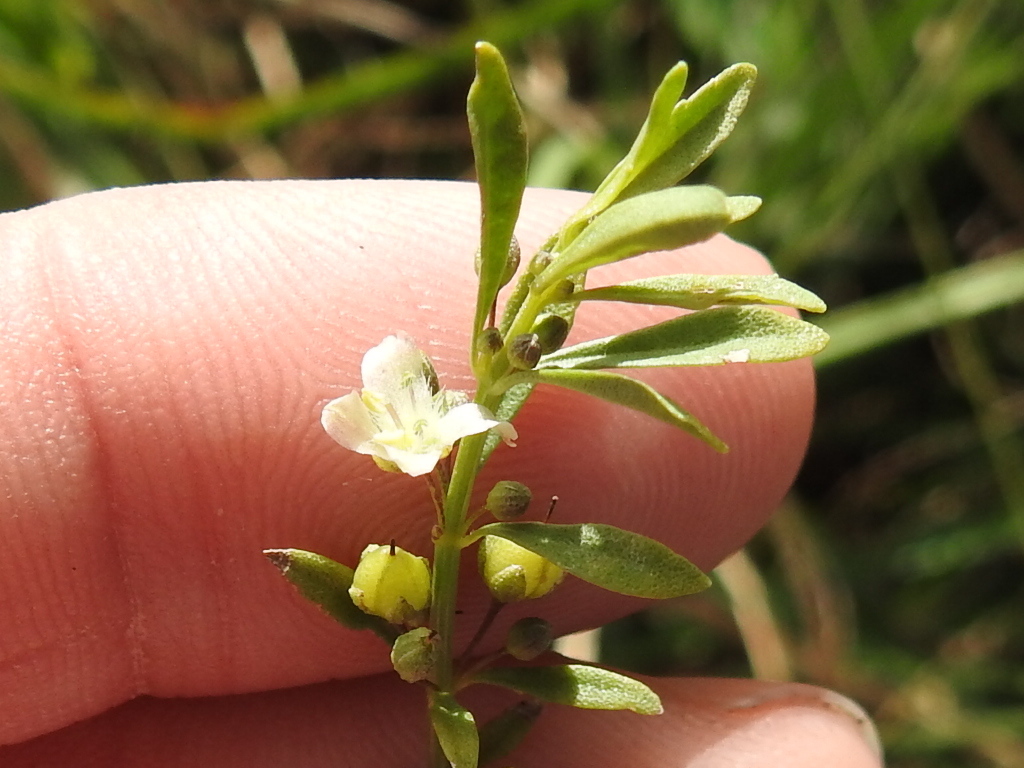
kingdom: Plantae
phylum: Tracheophyta
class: Magnoliopsida
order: Lamiales
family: Plantaginaceae
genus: Scoparia
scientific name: Scoparia dulcis
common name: Scoparia-weed
